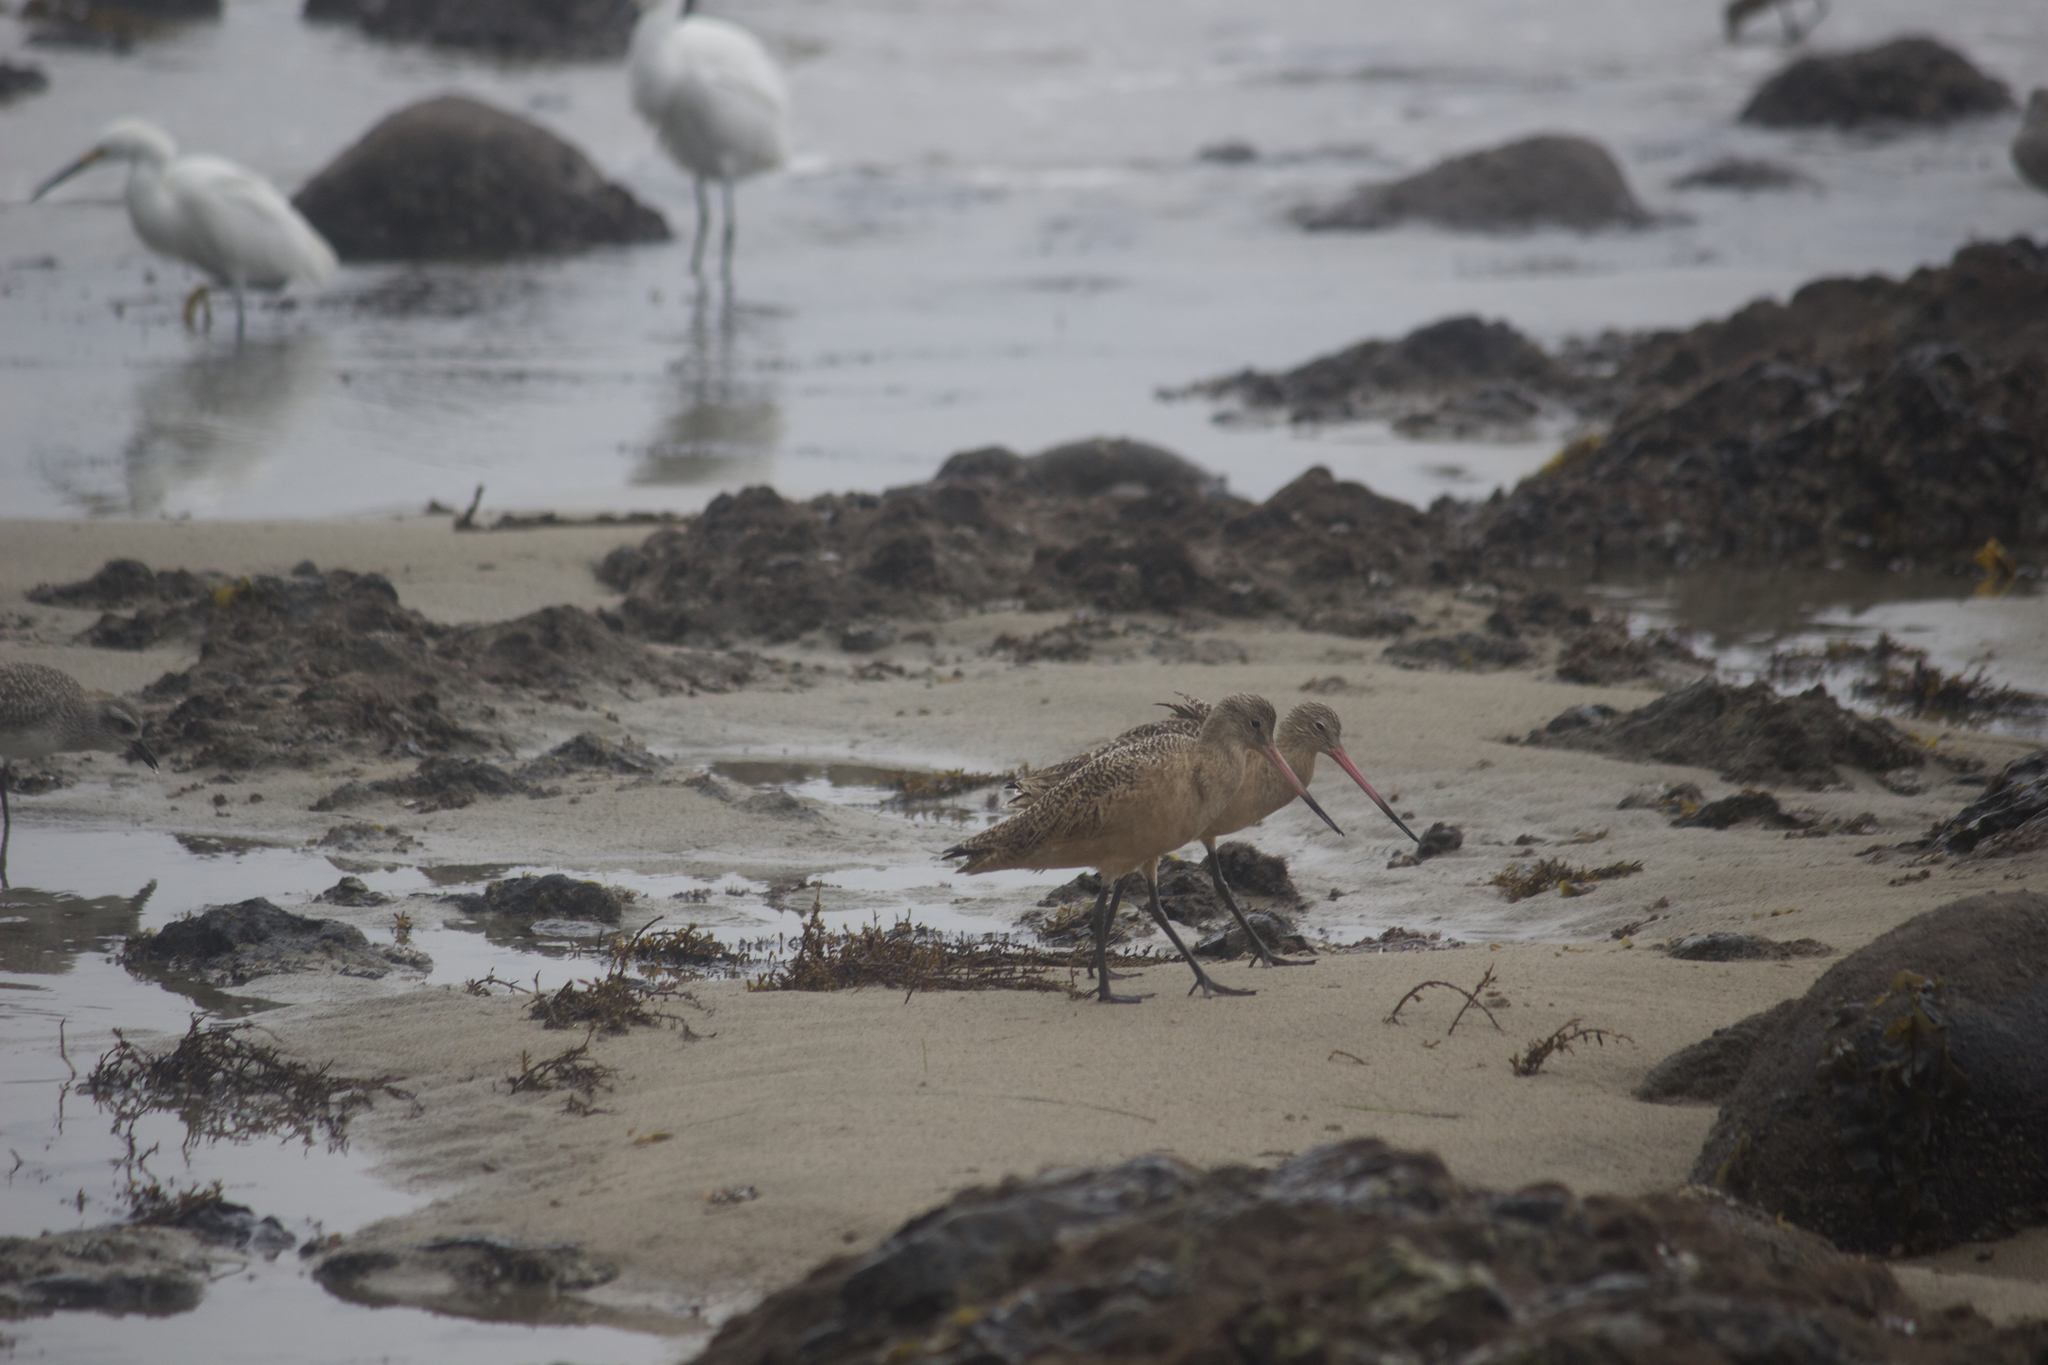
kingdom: Animalia
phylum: Chordata
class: Aves
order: Charadriiformes
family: Scolopacidae
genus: Limosa
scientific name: Limosa fedoa
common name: Marbled godwit
